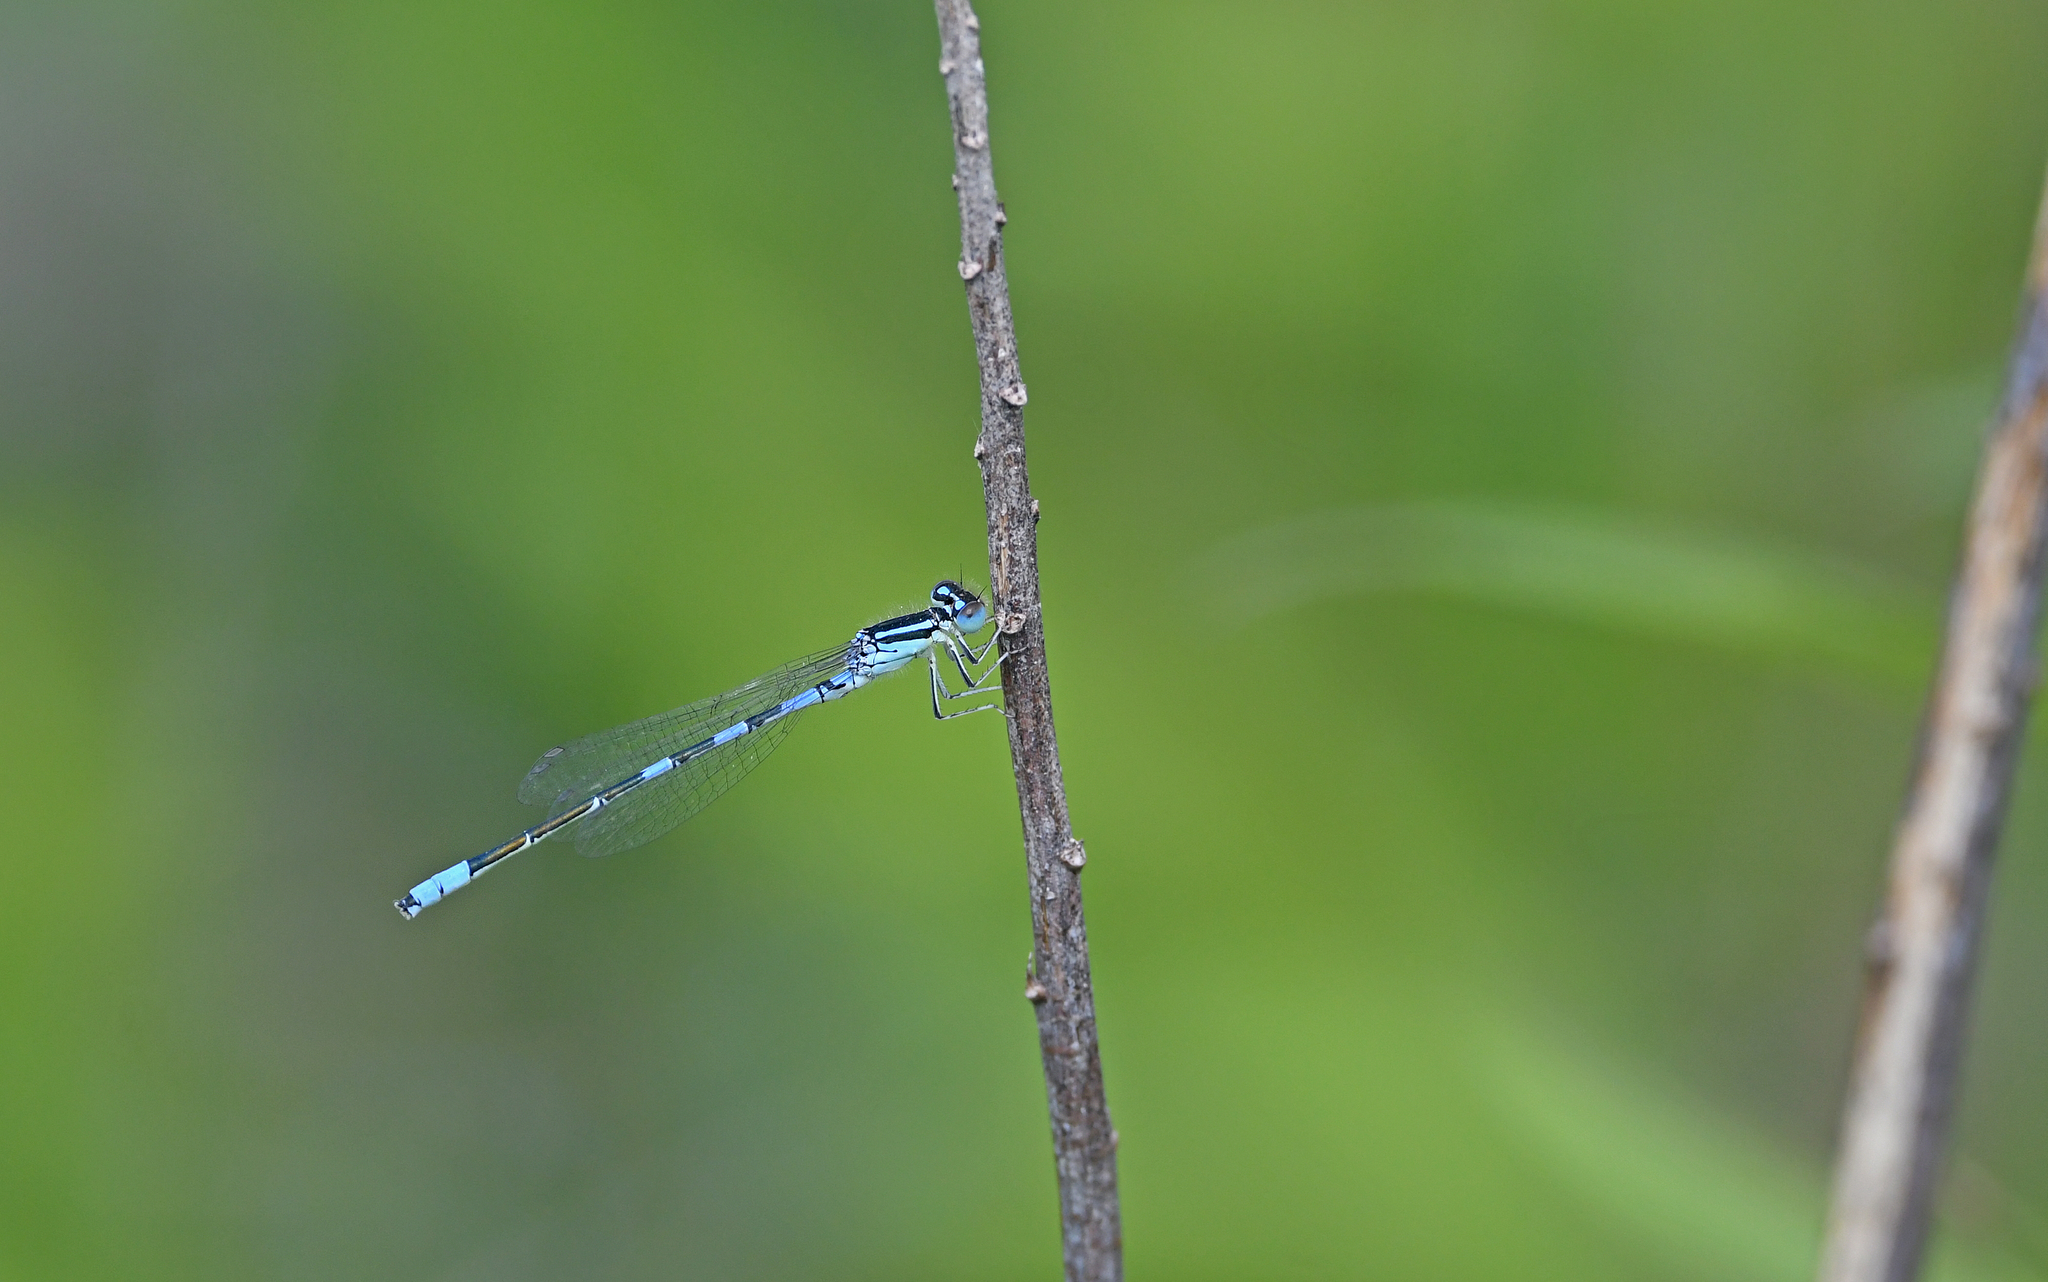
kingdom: Animalia
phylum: Arthropoda
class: Insecta
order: Odonata
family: Coenagrionidae
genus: Coenagrion
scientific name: Coenagrion scitulum
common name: Dainty bluet
